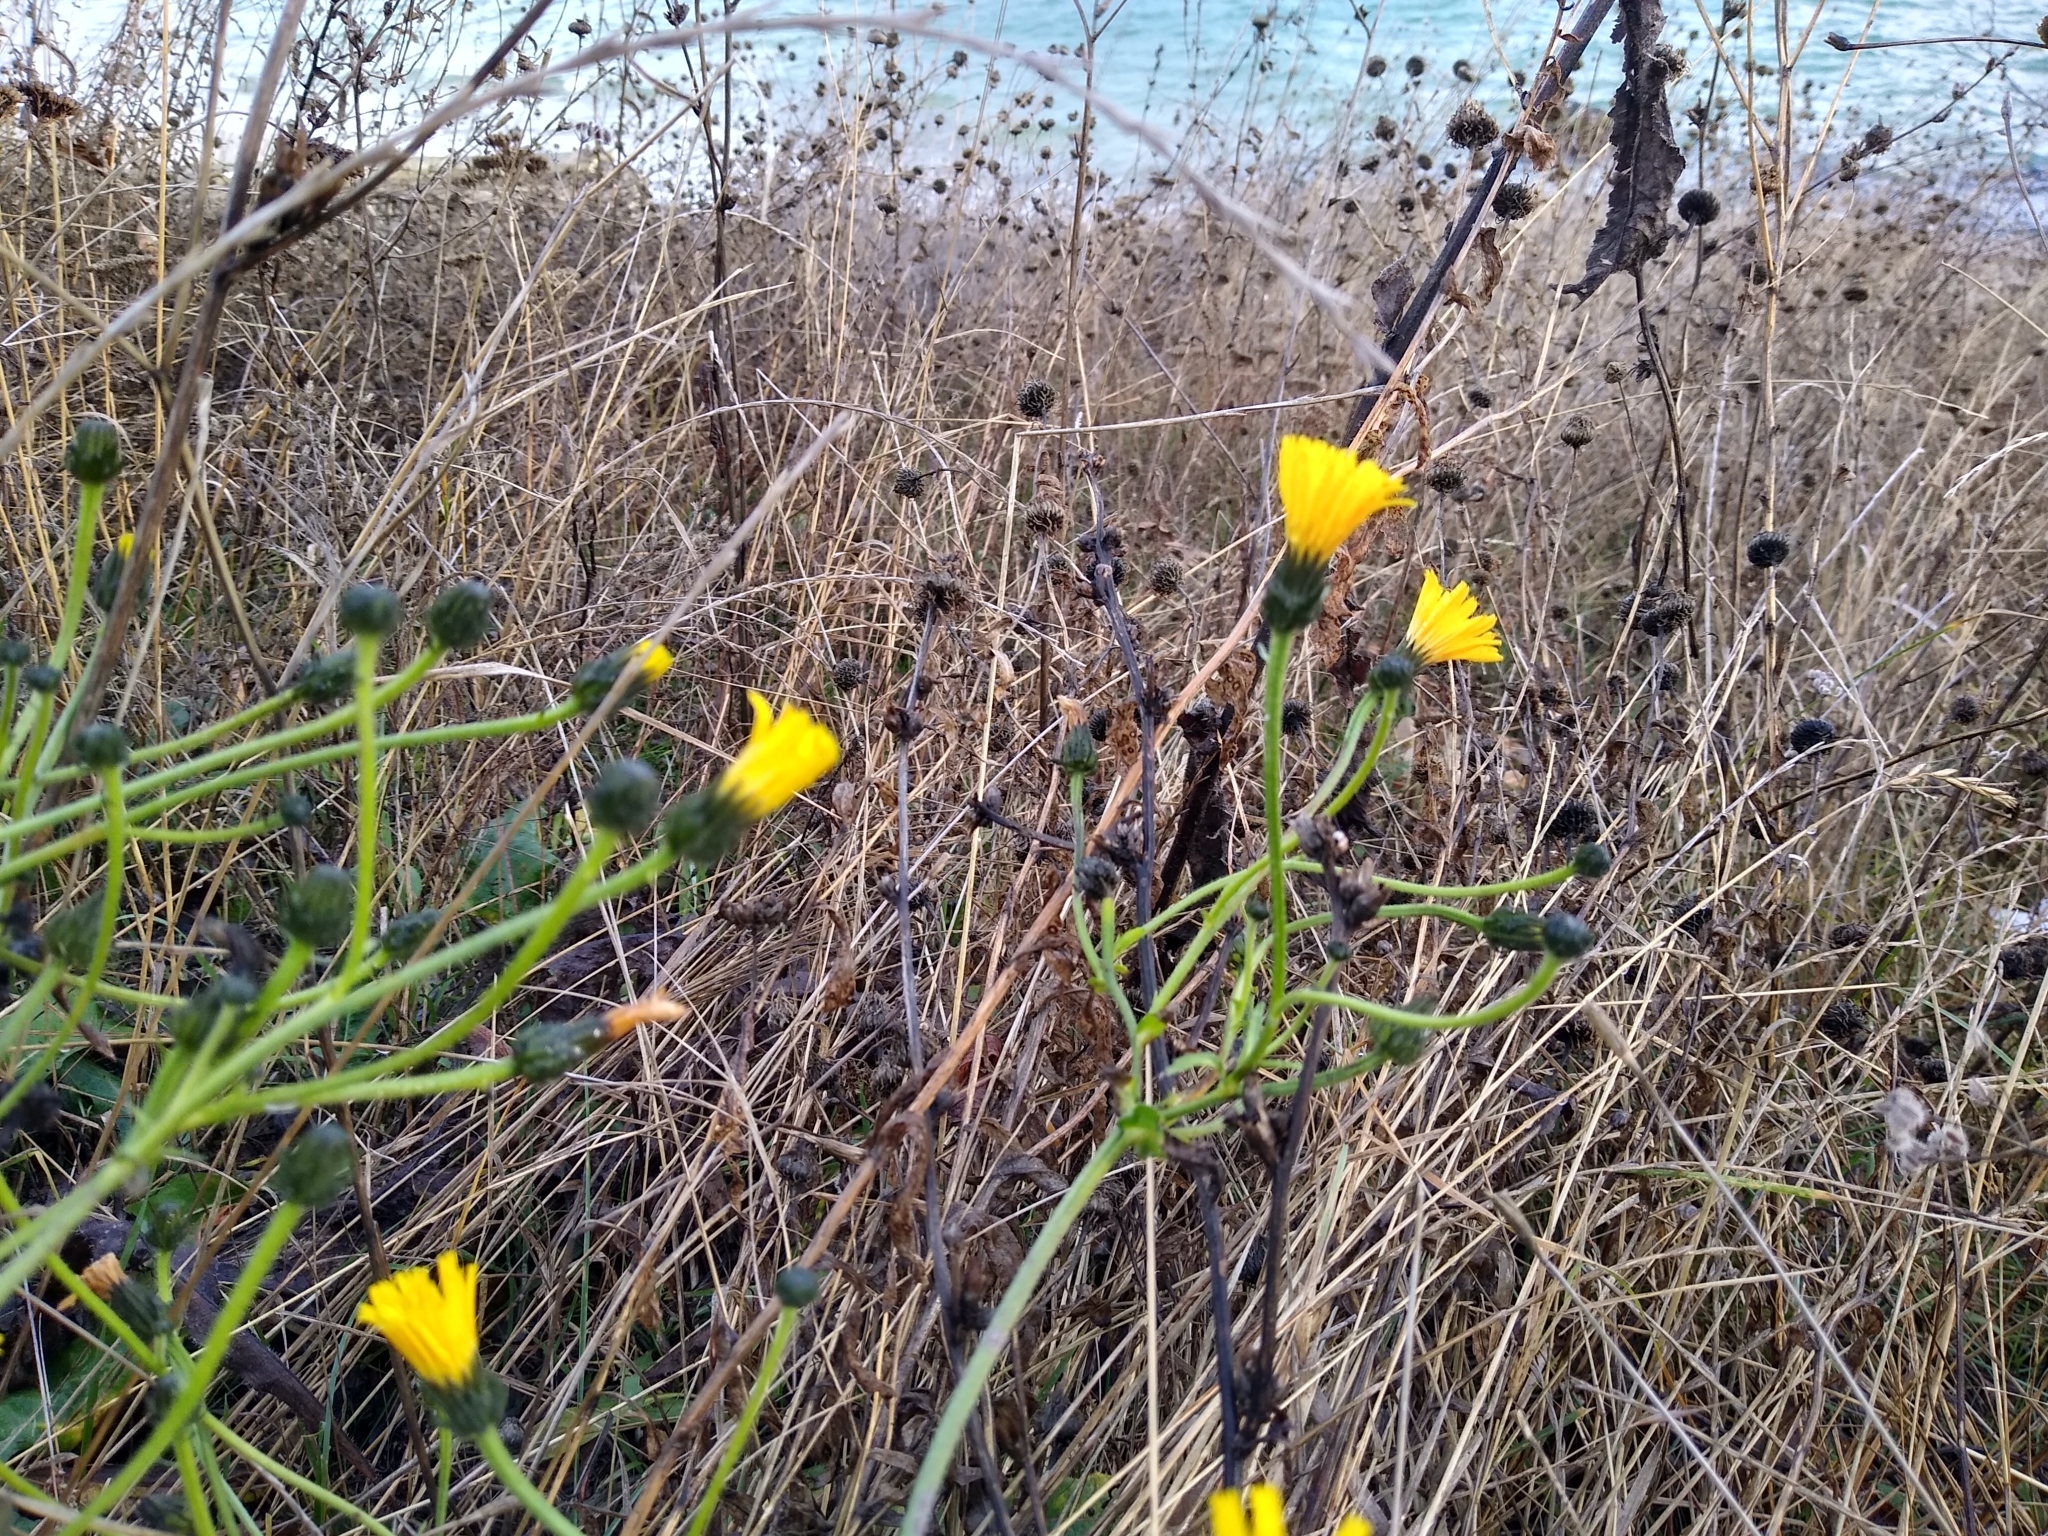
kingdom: Plantae
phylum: Tracheophyta
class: Magnoliopsida
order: Asterales
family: Asteraceae
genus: Picris
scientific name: Picris hieracioides
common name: Hawkweed oxtongue
